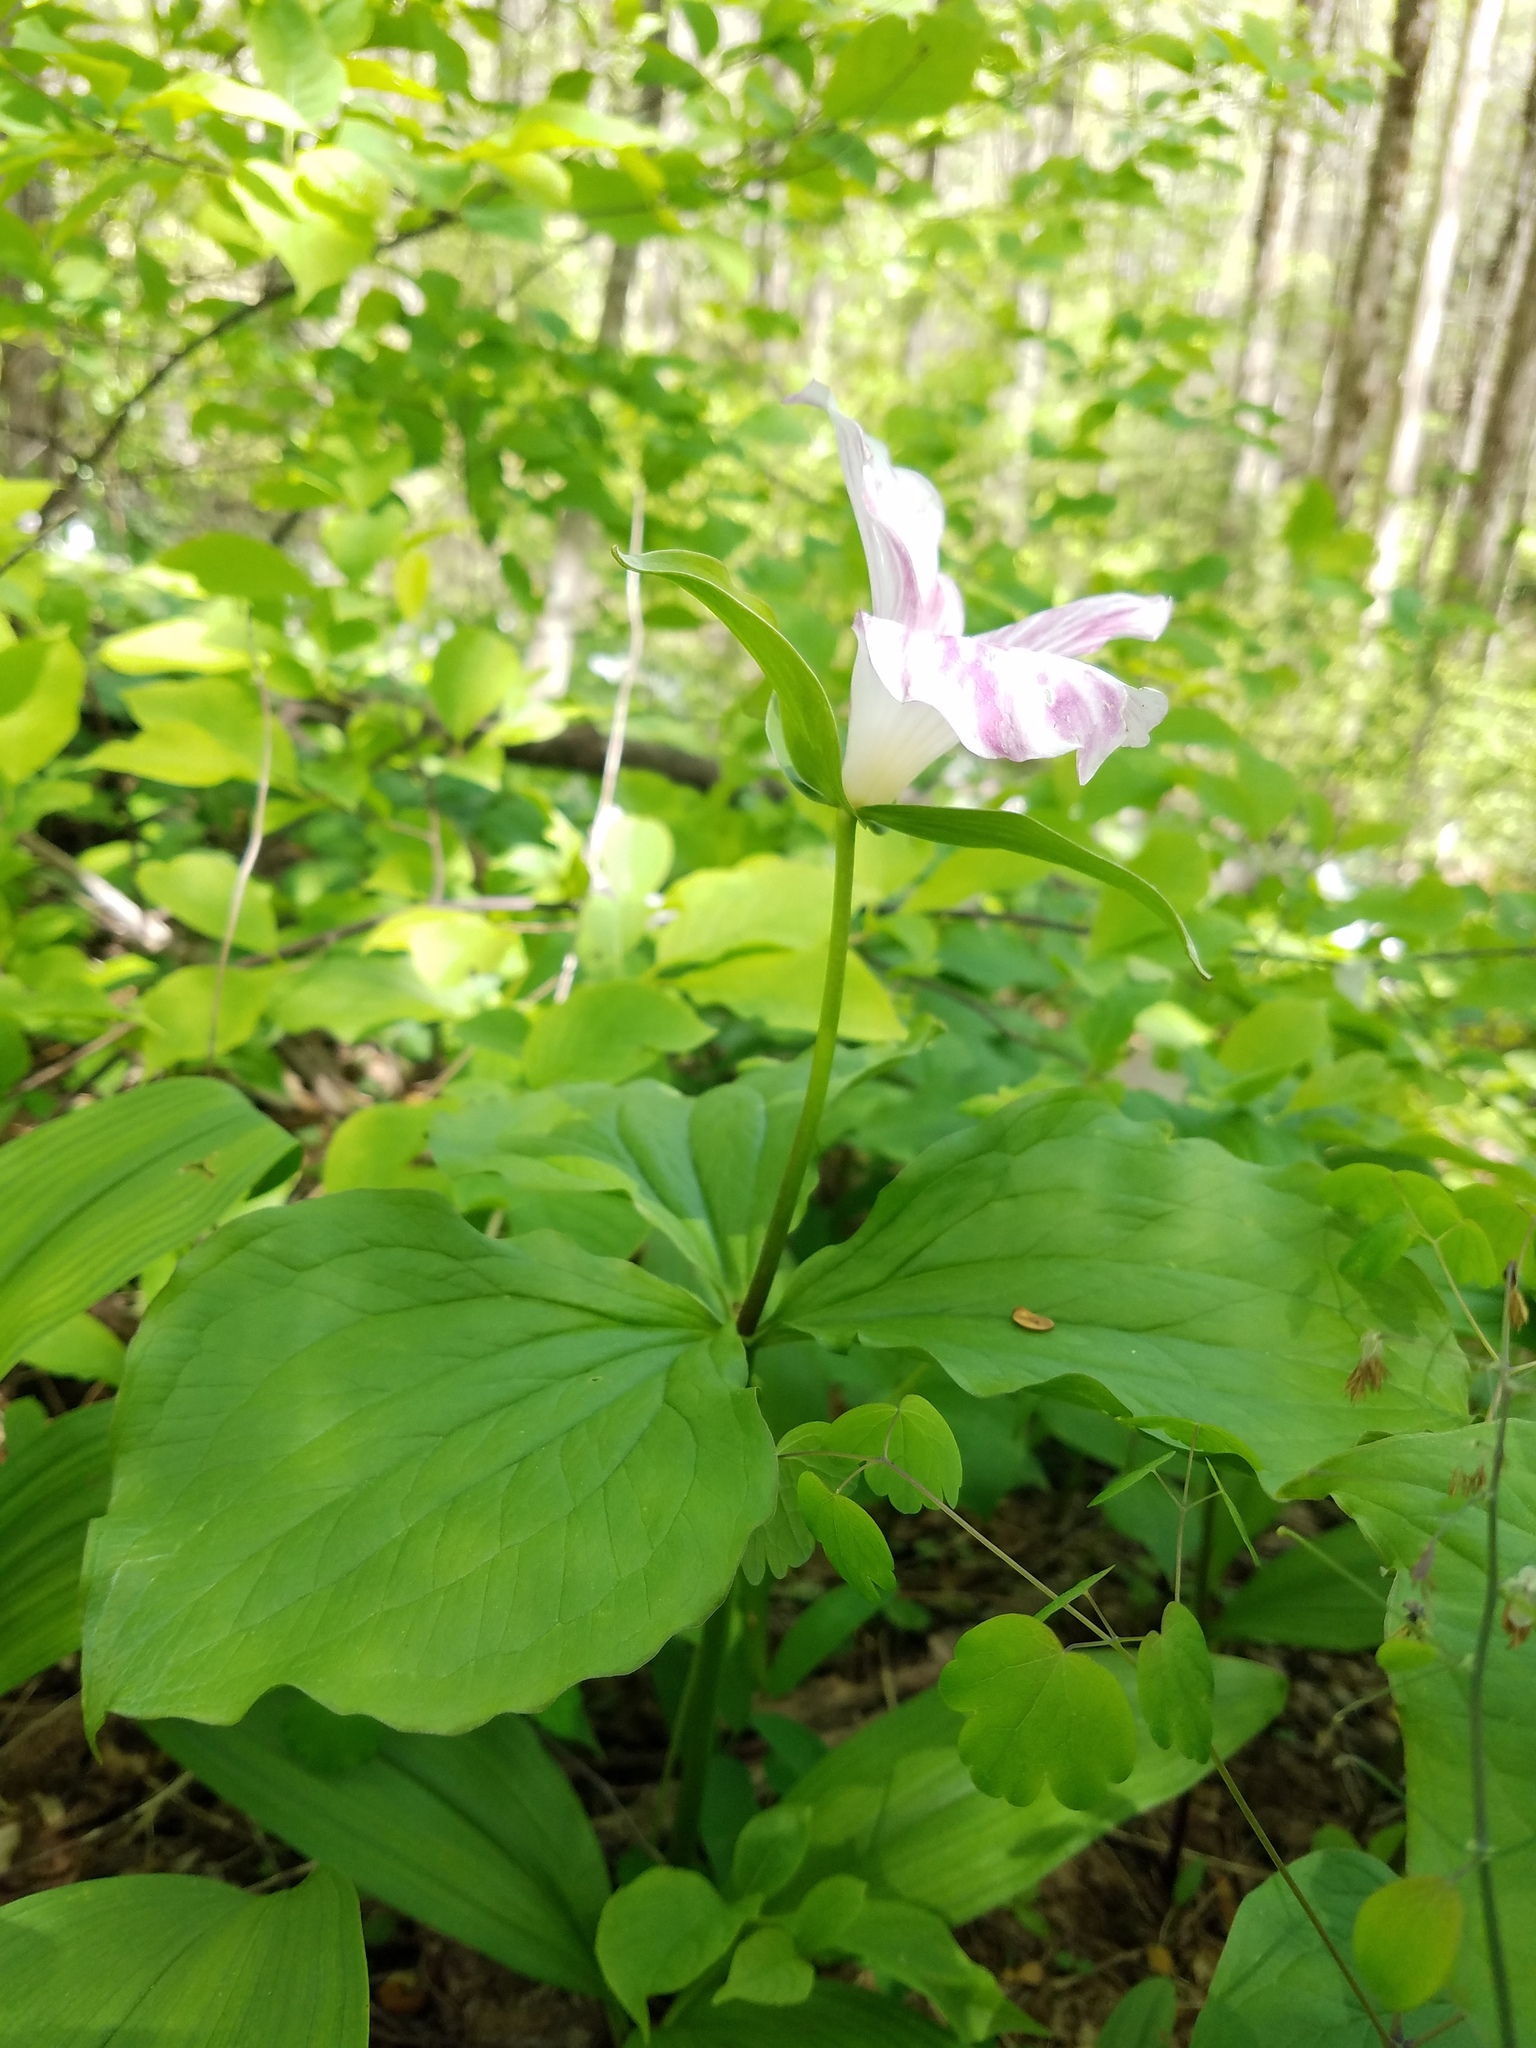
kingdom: Plantae
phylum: Tracheophyta
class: Liliopsida
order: Liliales
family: Melanthiaceae
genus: Trillium
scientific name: Trillium grandiflorum
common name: Great white trillium
